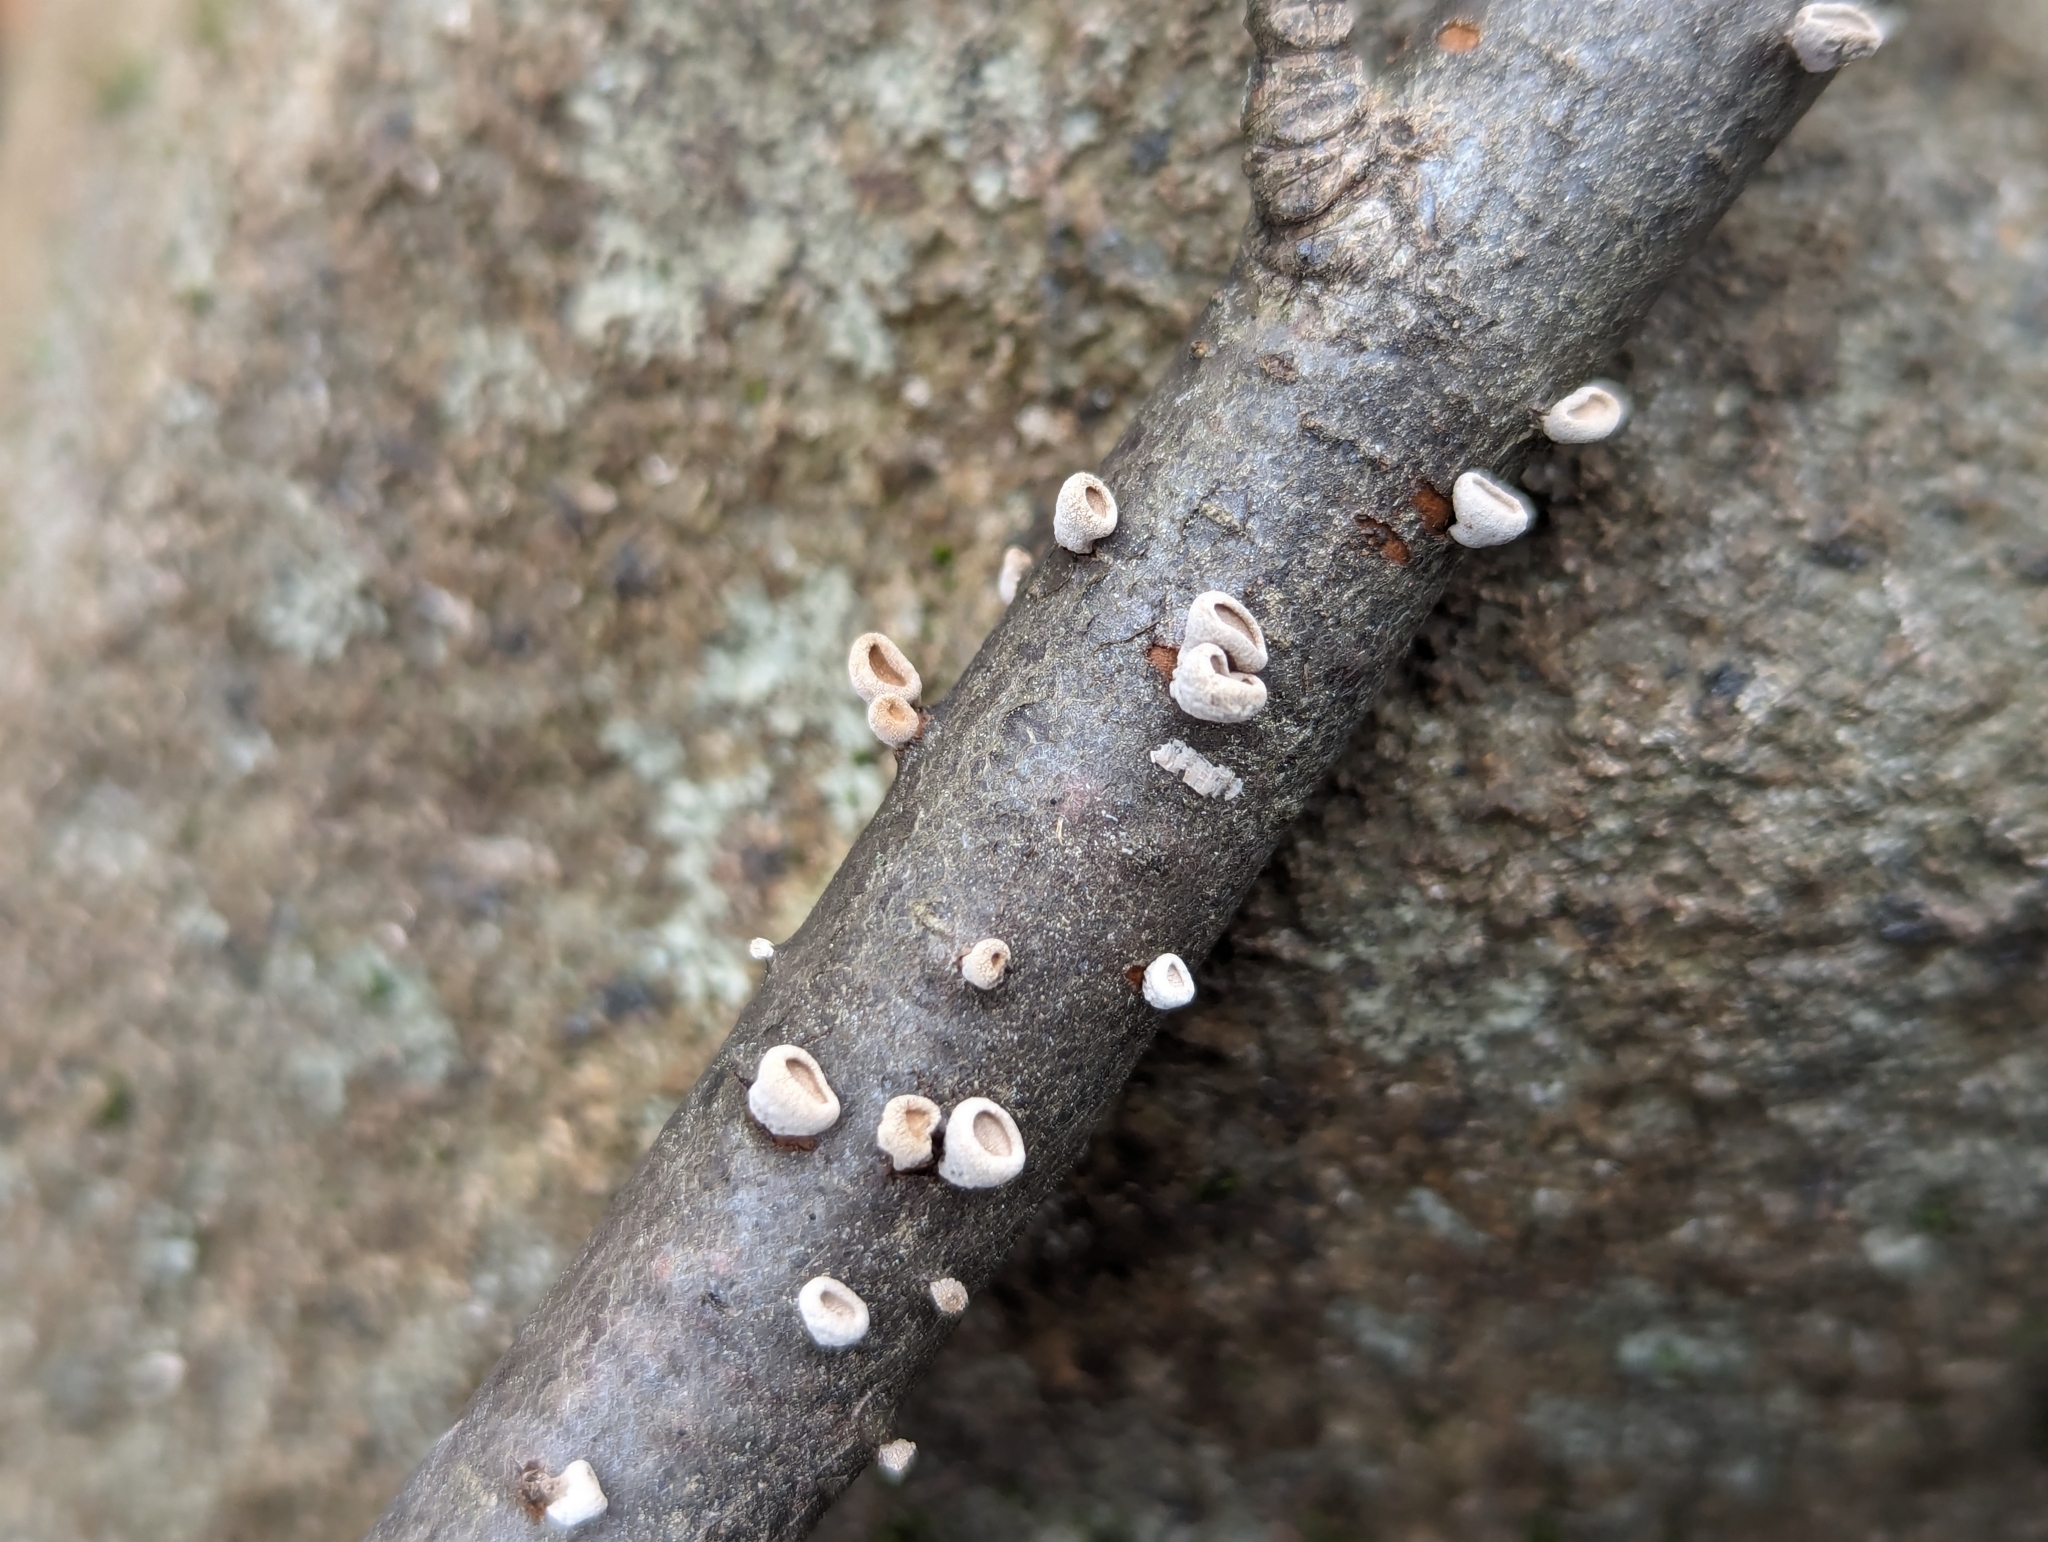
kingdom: Fungi
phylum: Basidiomycota
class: Agaricomycetes
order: Agaricales
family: Schizophyllaceae
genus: Porodisculus
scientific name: Porodisculus pendulus
